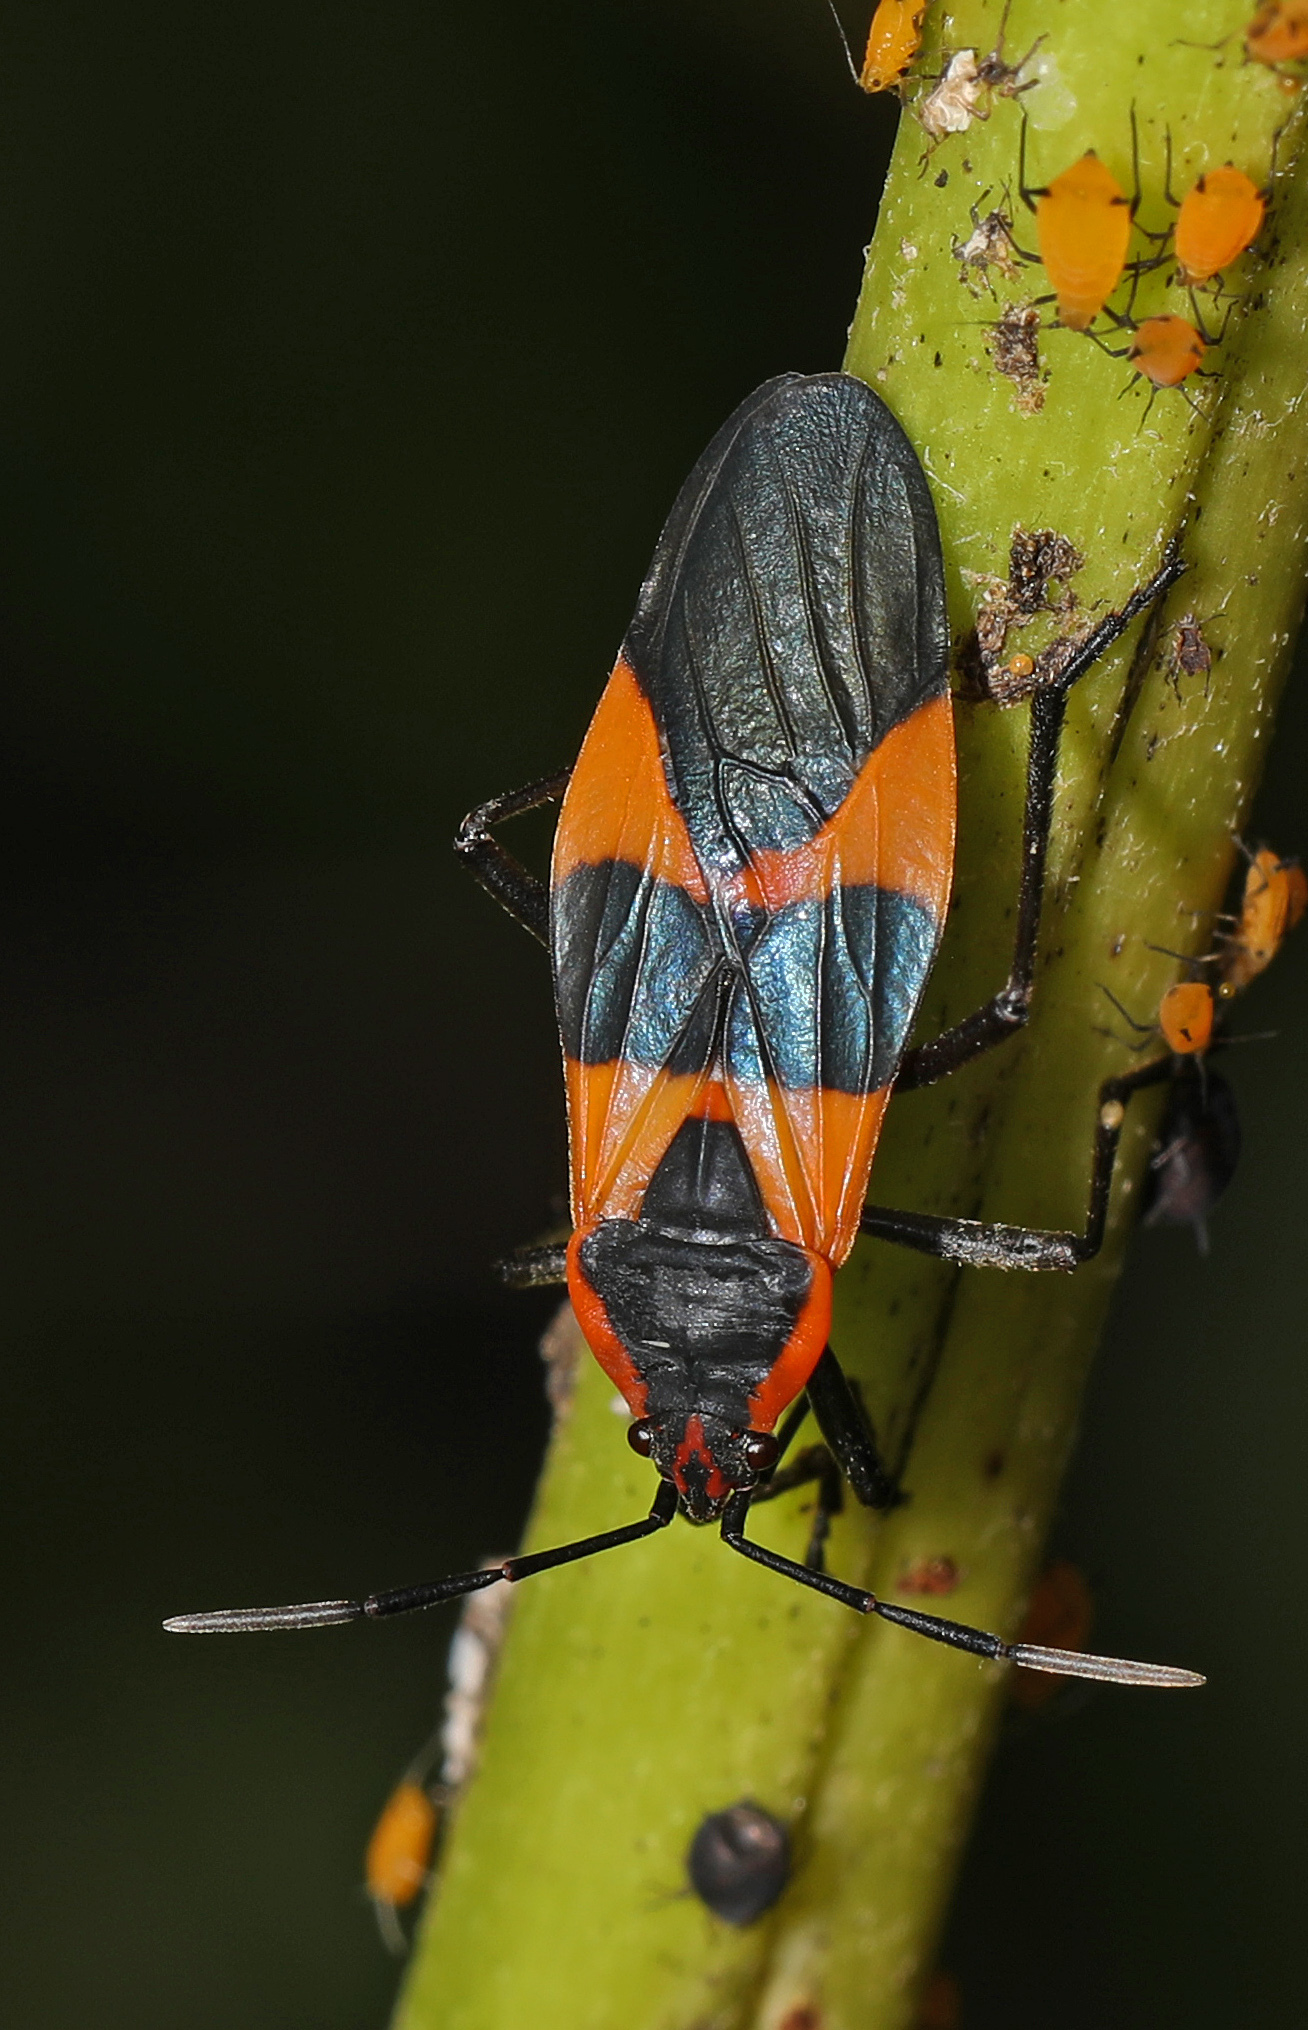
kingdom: Animalia
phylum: Arthropoda
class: Insecta
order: Hemiptera
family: Lygaeidae
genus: Oncopeltus
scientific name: Oncopeltus fasciatus
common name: Large milkweed bug
